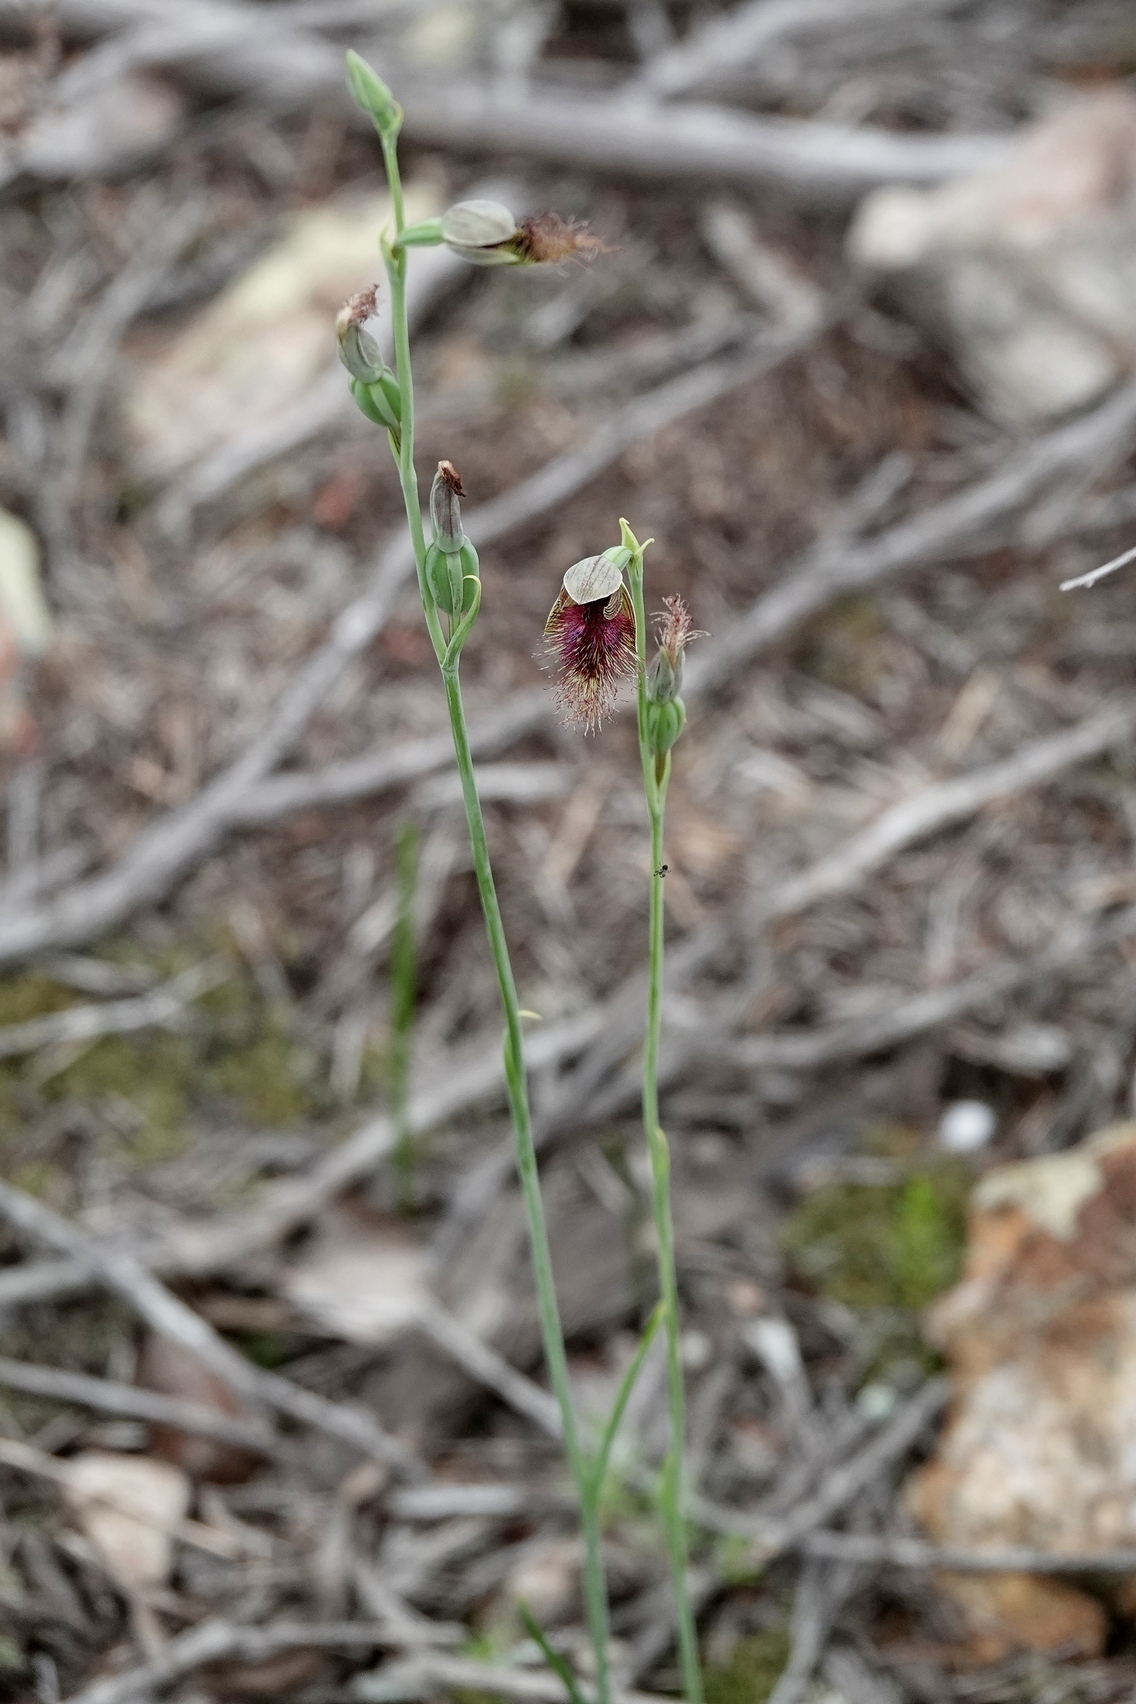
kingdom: Plantae
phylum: Tracheophyta
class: Liliopsida
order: Asparagales
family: Orchidaceae
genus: Calochilus
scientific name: Calochilus therophilus
